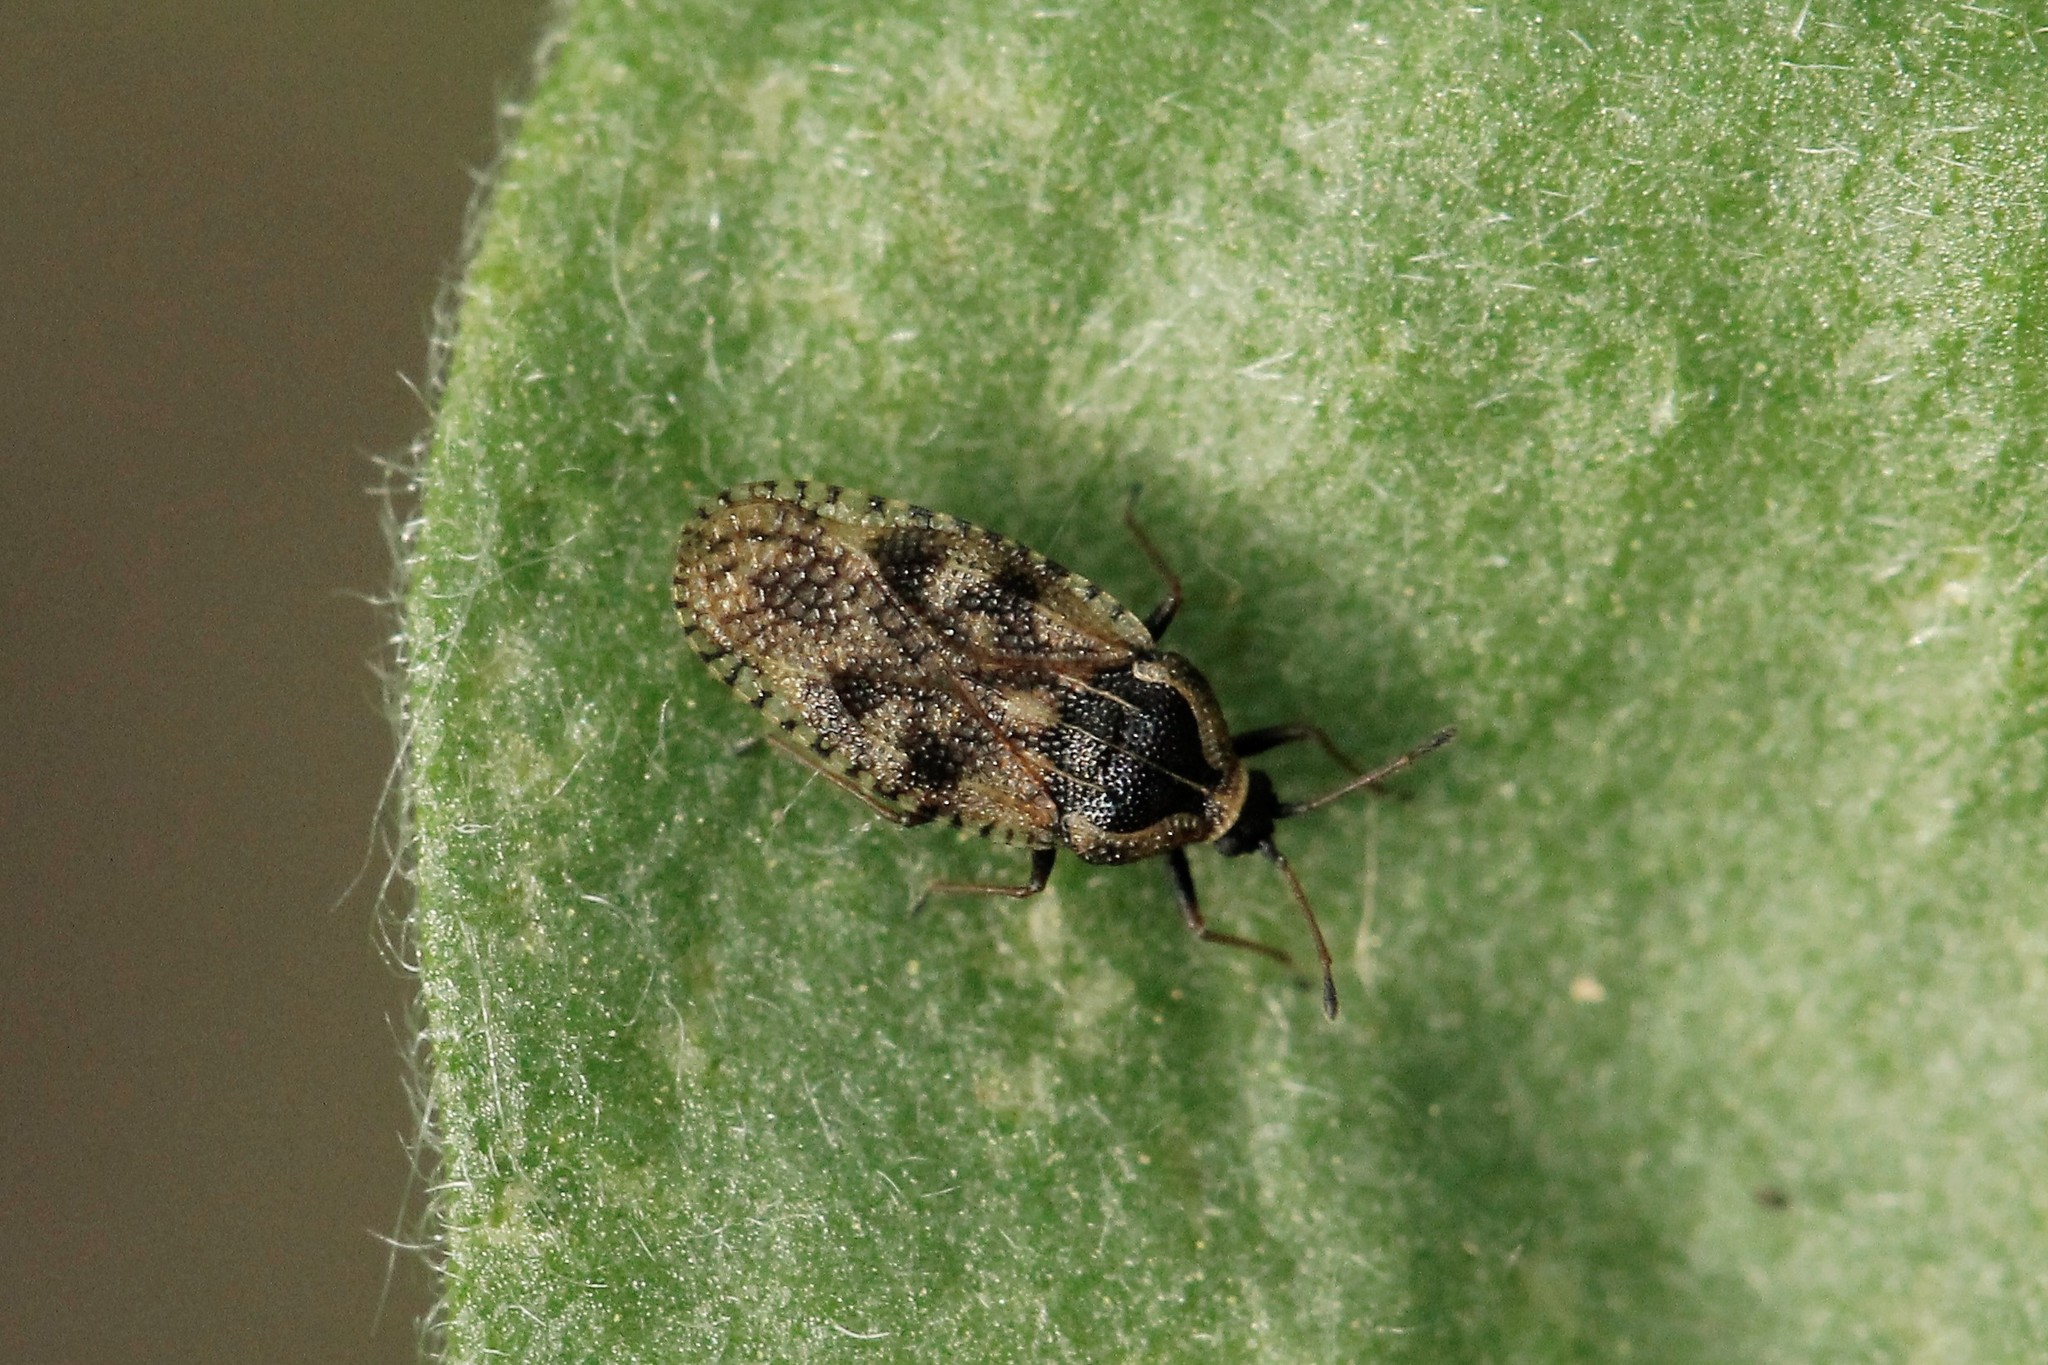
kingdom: Animalia
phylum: Arthropoda
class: Insecta
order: Hemiptera
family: Tingidae
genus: Dictyla
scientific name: Dictyla echii
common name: Lace bug
